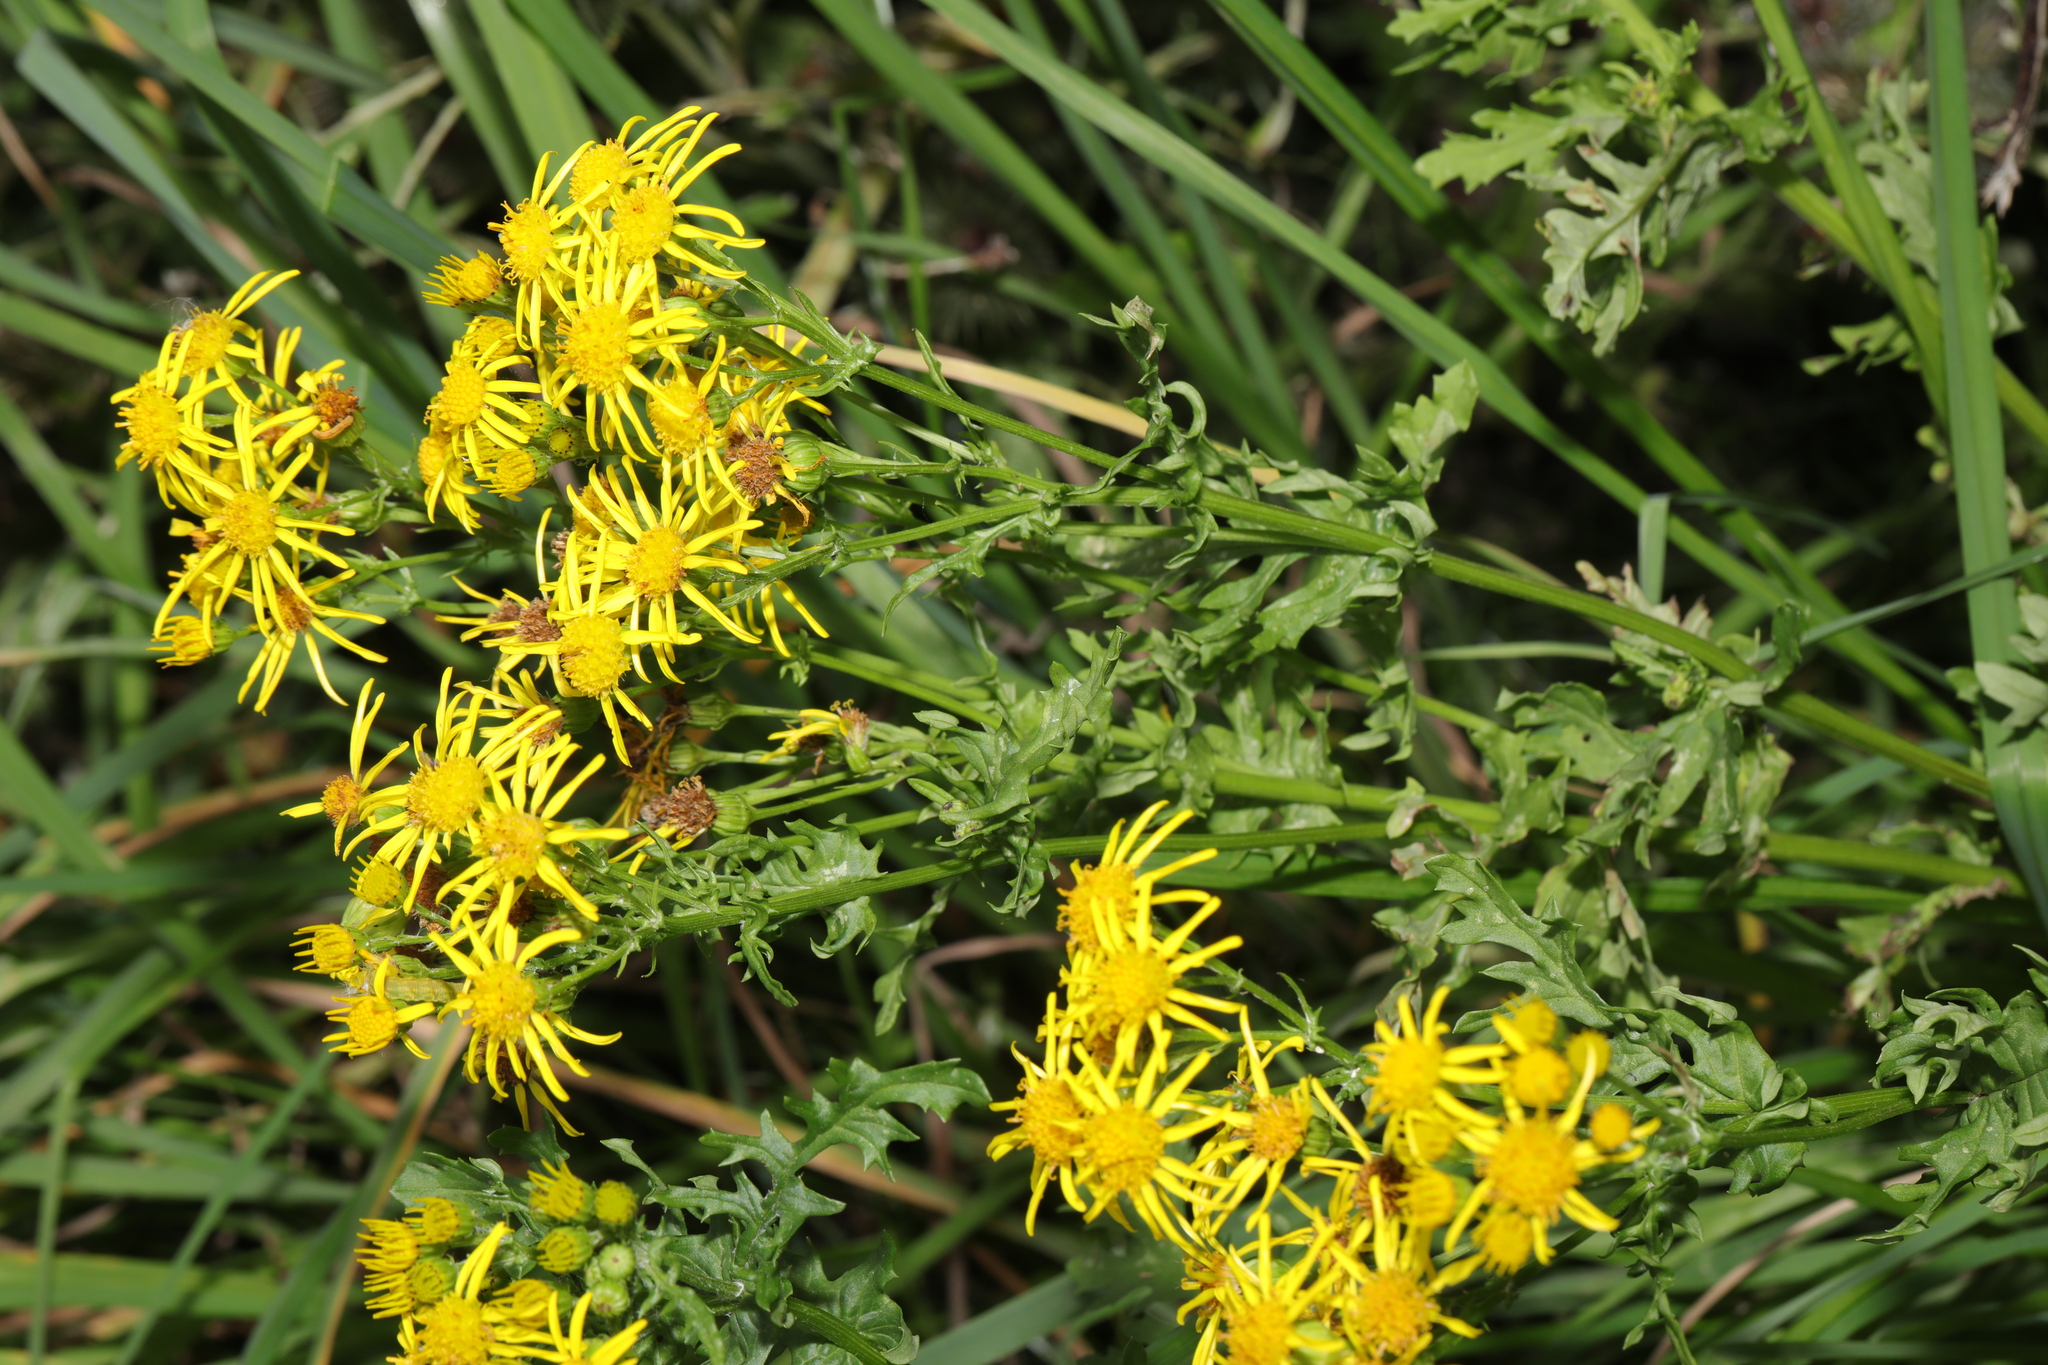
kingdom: Plantae
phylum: Tracheophyta
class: Magnoliopsida
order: Asterales
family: Asteraceae
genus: Jacobaea
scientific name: Jacobaea vulgaris
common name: Stinking willie
